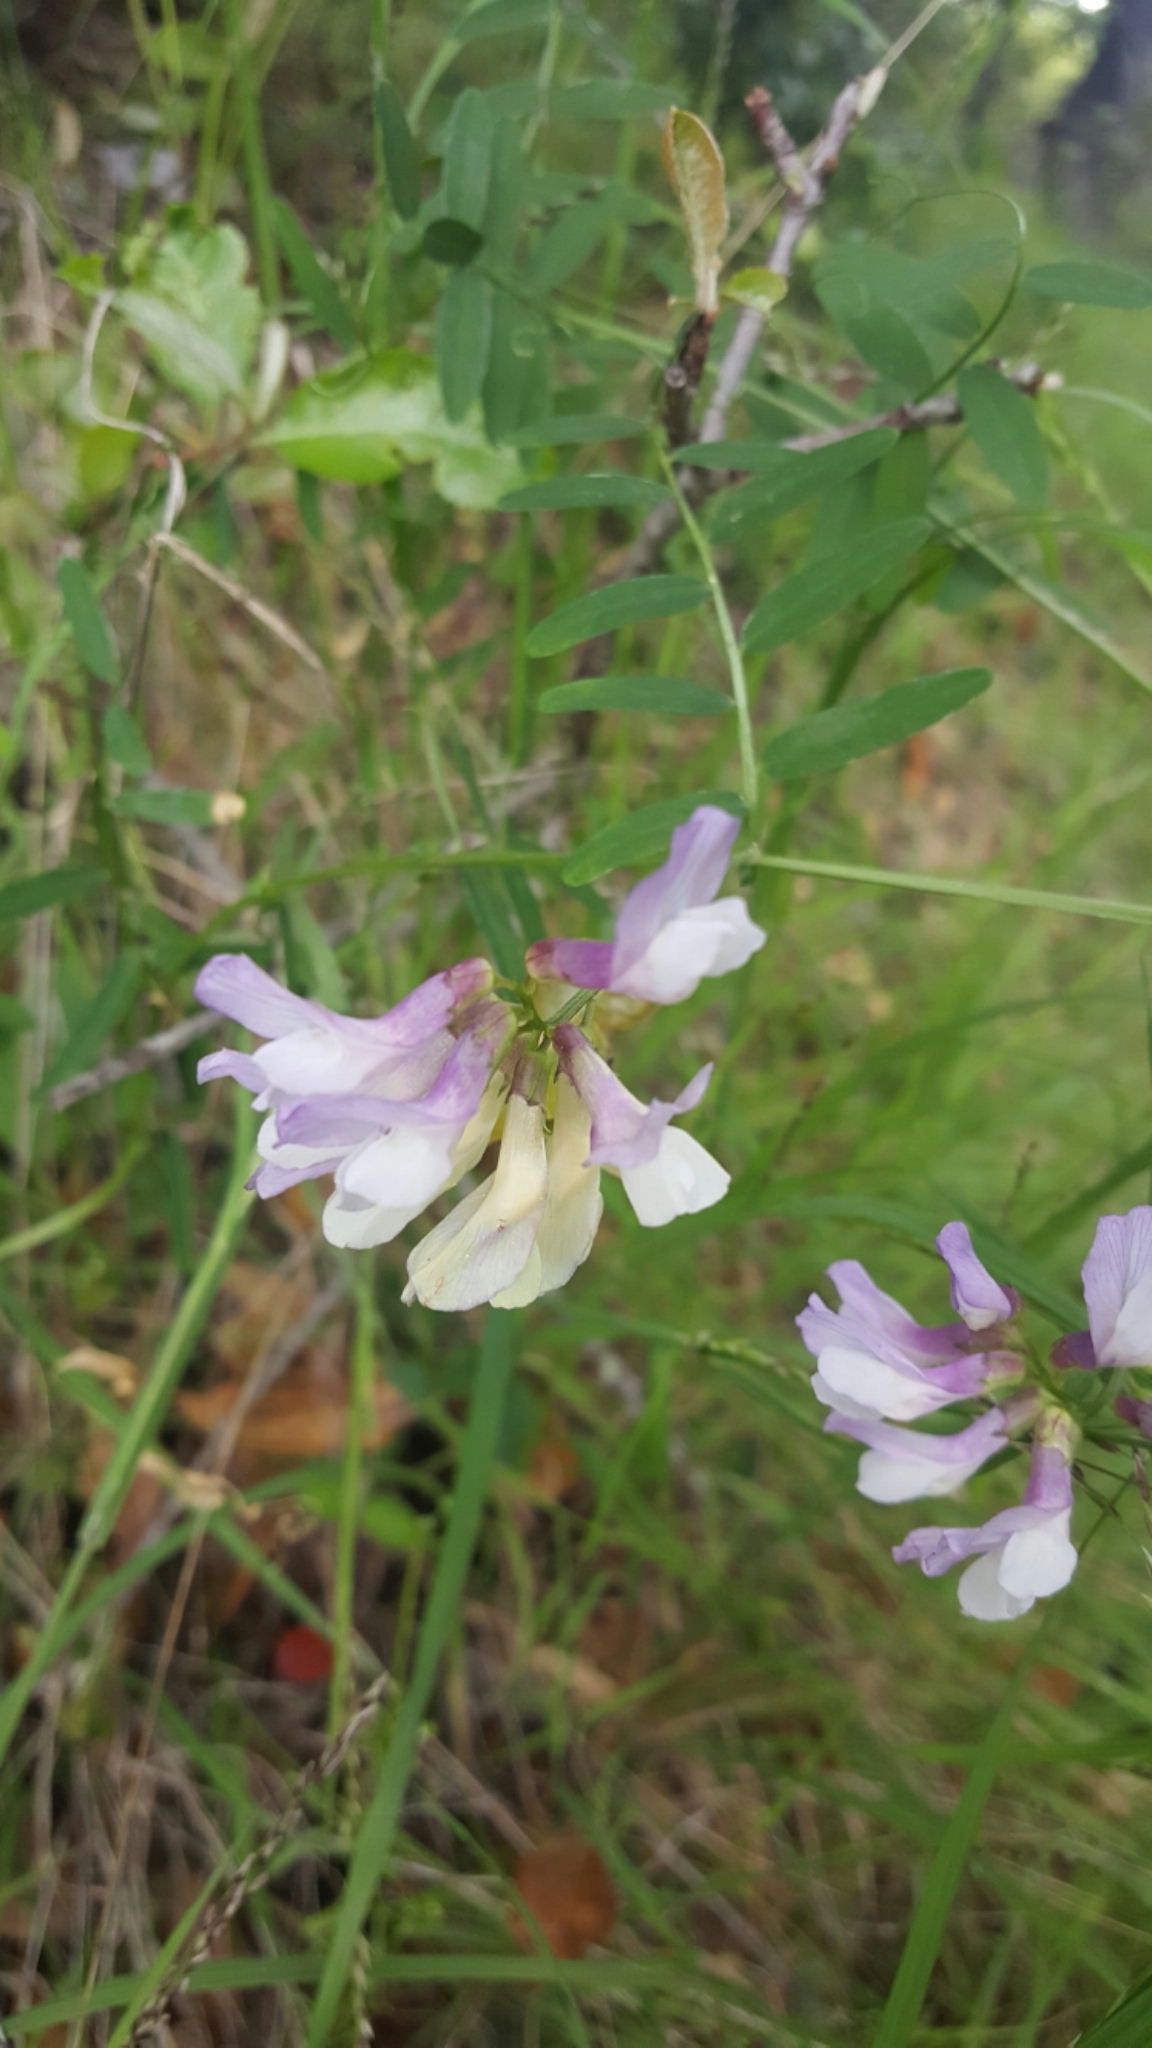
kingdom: Plantae
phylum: Tracheophyta
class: Magnoliopsida
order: Fabales
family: Fabaceae
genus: Lathyrus
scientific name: Lathyrus vestitus
